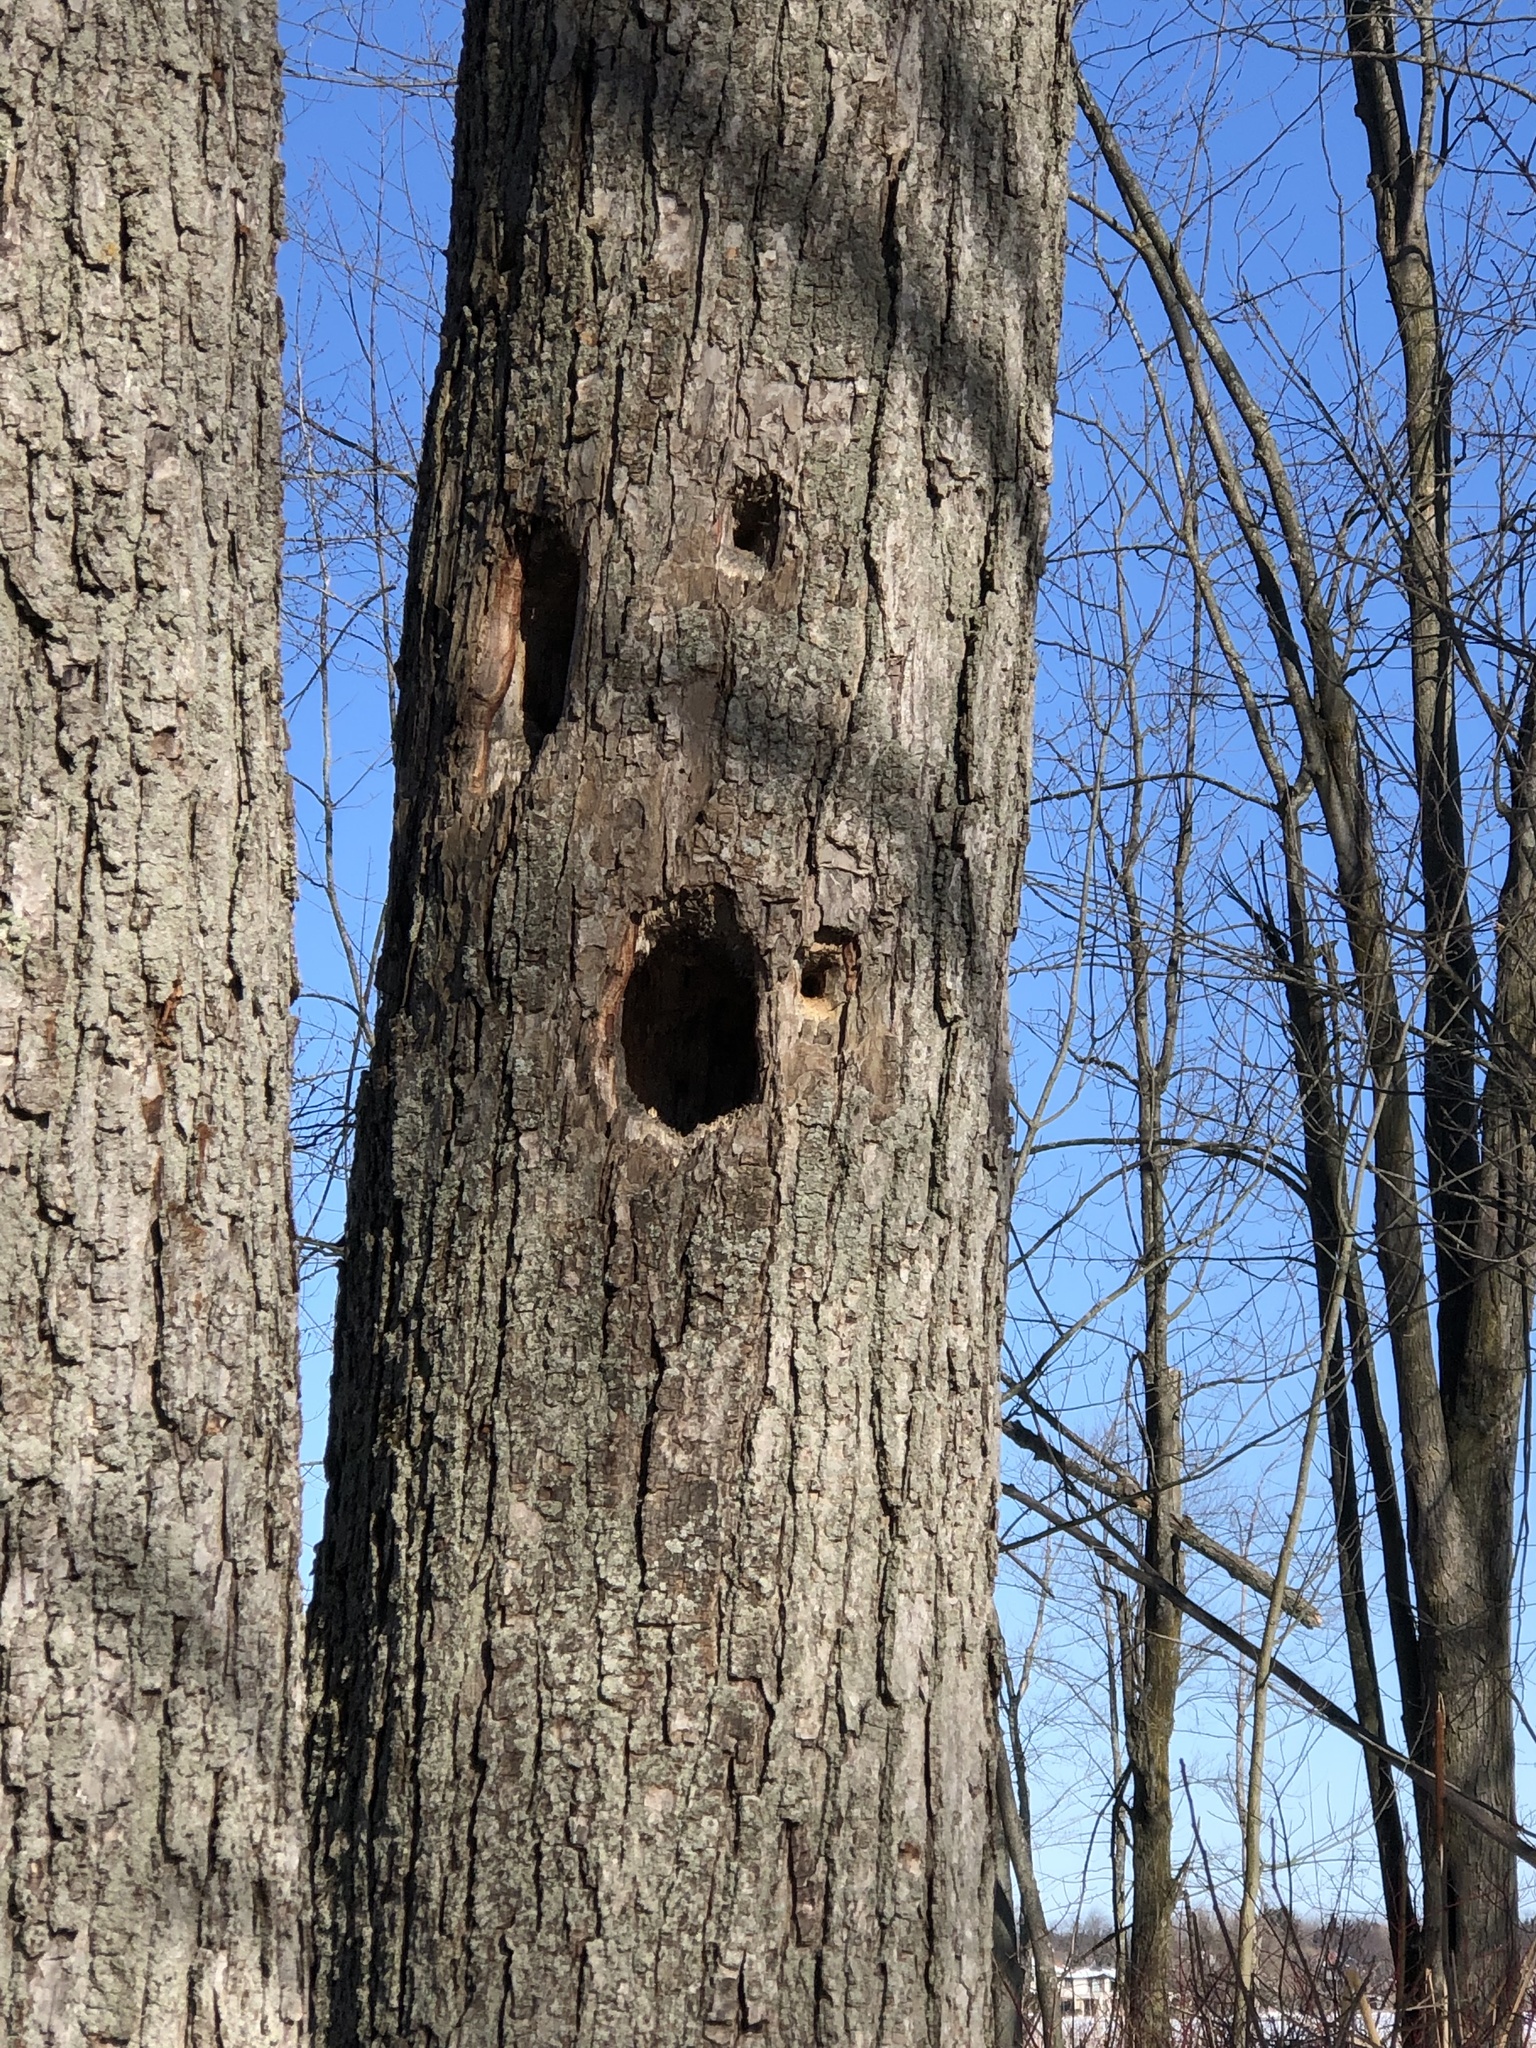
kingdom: Animalia
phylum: Chordata
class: Aves
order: Piciformes
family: Picidae
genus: Dryocopus
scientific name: Dryocopus pileatus
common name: Pileated woodpecker
